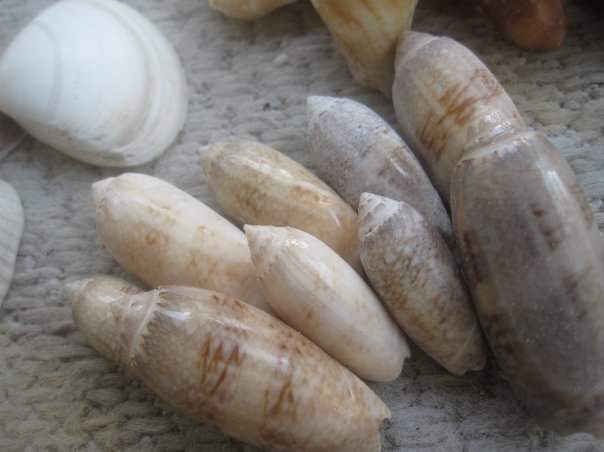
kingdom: Animalia
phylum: Mollusca
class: Gastropoda
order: Neogastropoda
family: Olividae
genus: Oliva
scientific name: Oliva sayana
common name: Lettered olive
